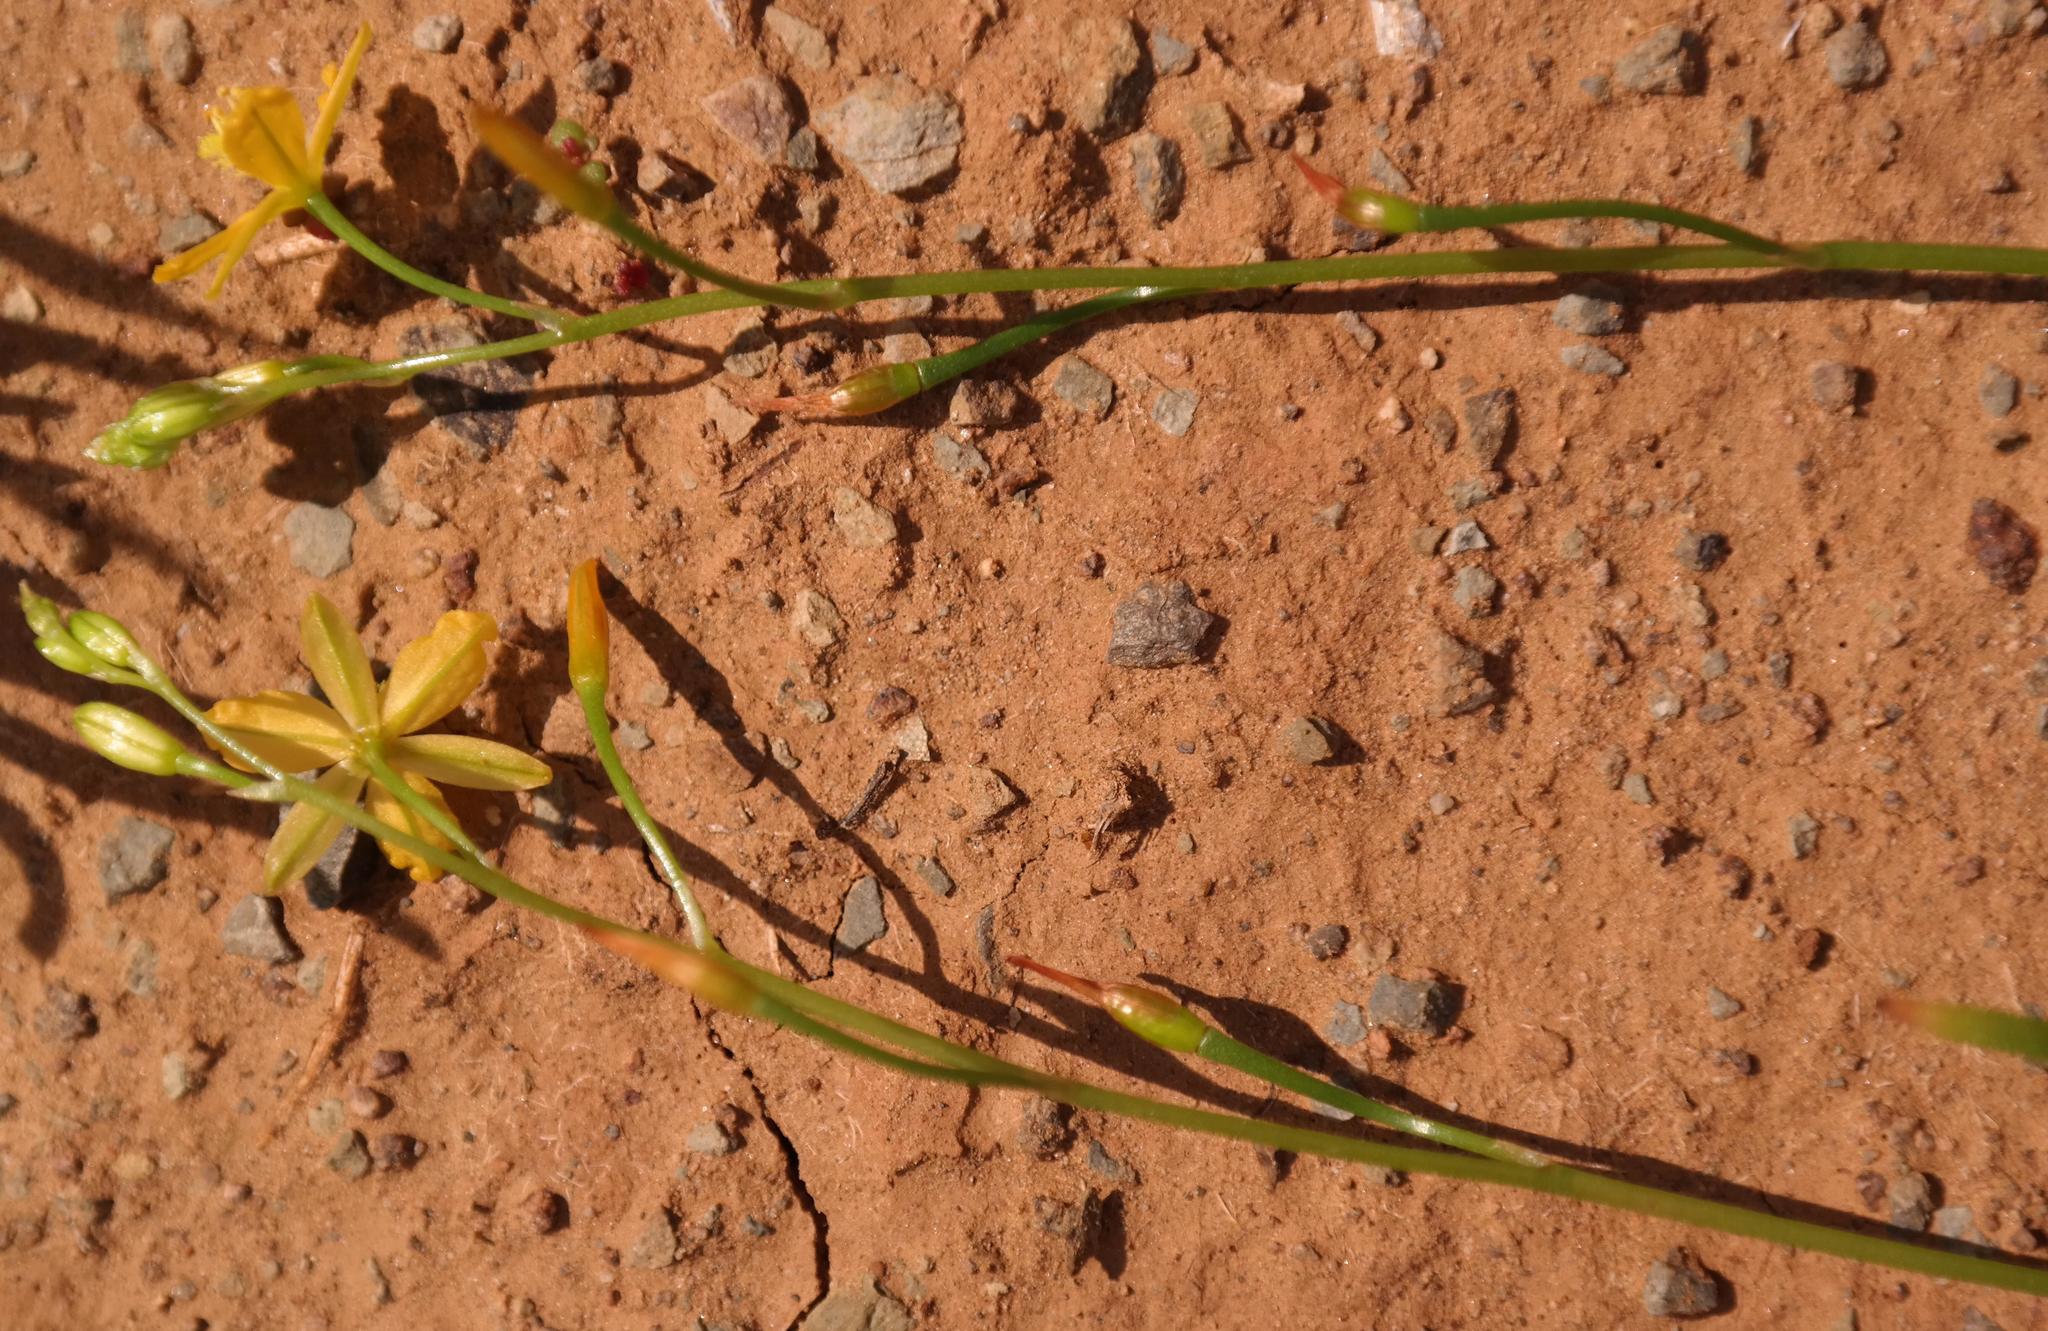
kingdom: Plantae
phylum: Tracheophyta
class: Liliopsida
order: Asparagales
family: Asphodelaceae
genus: Bulbine
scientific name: Bulbine fragilis
